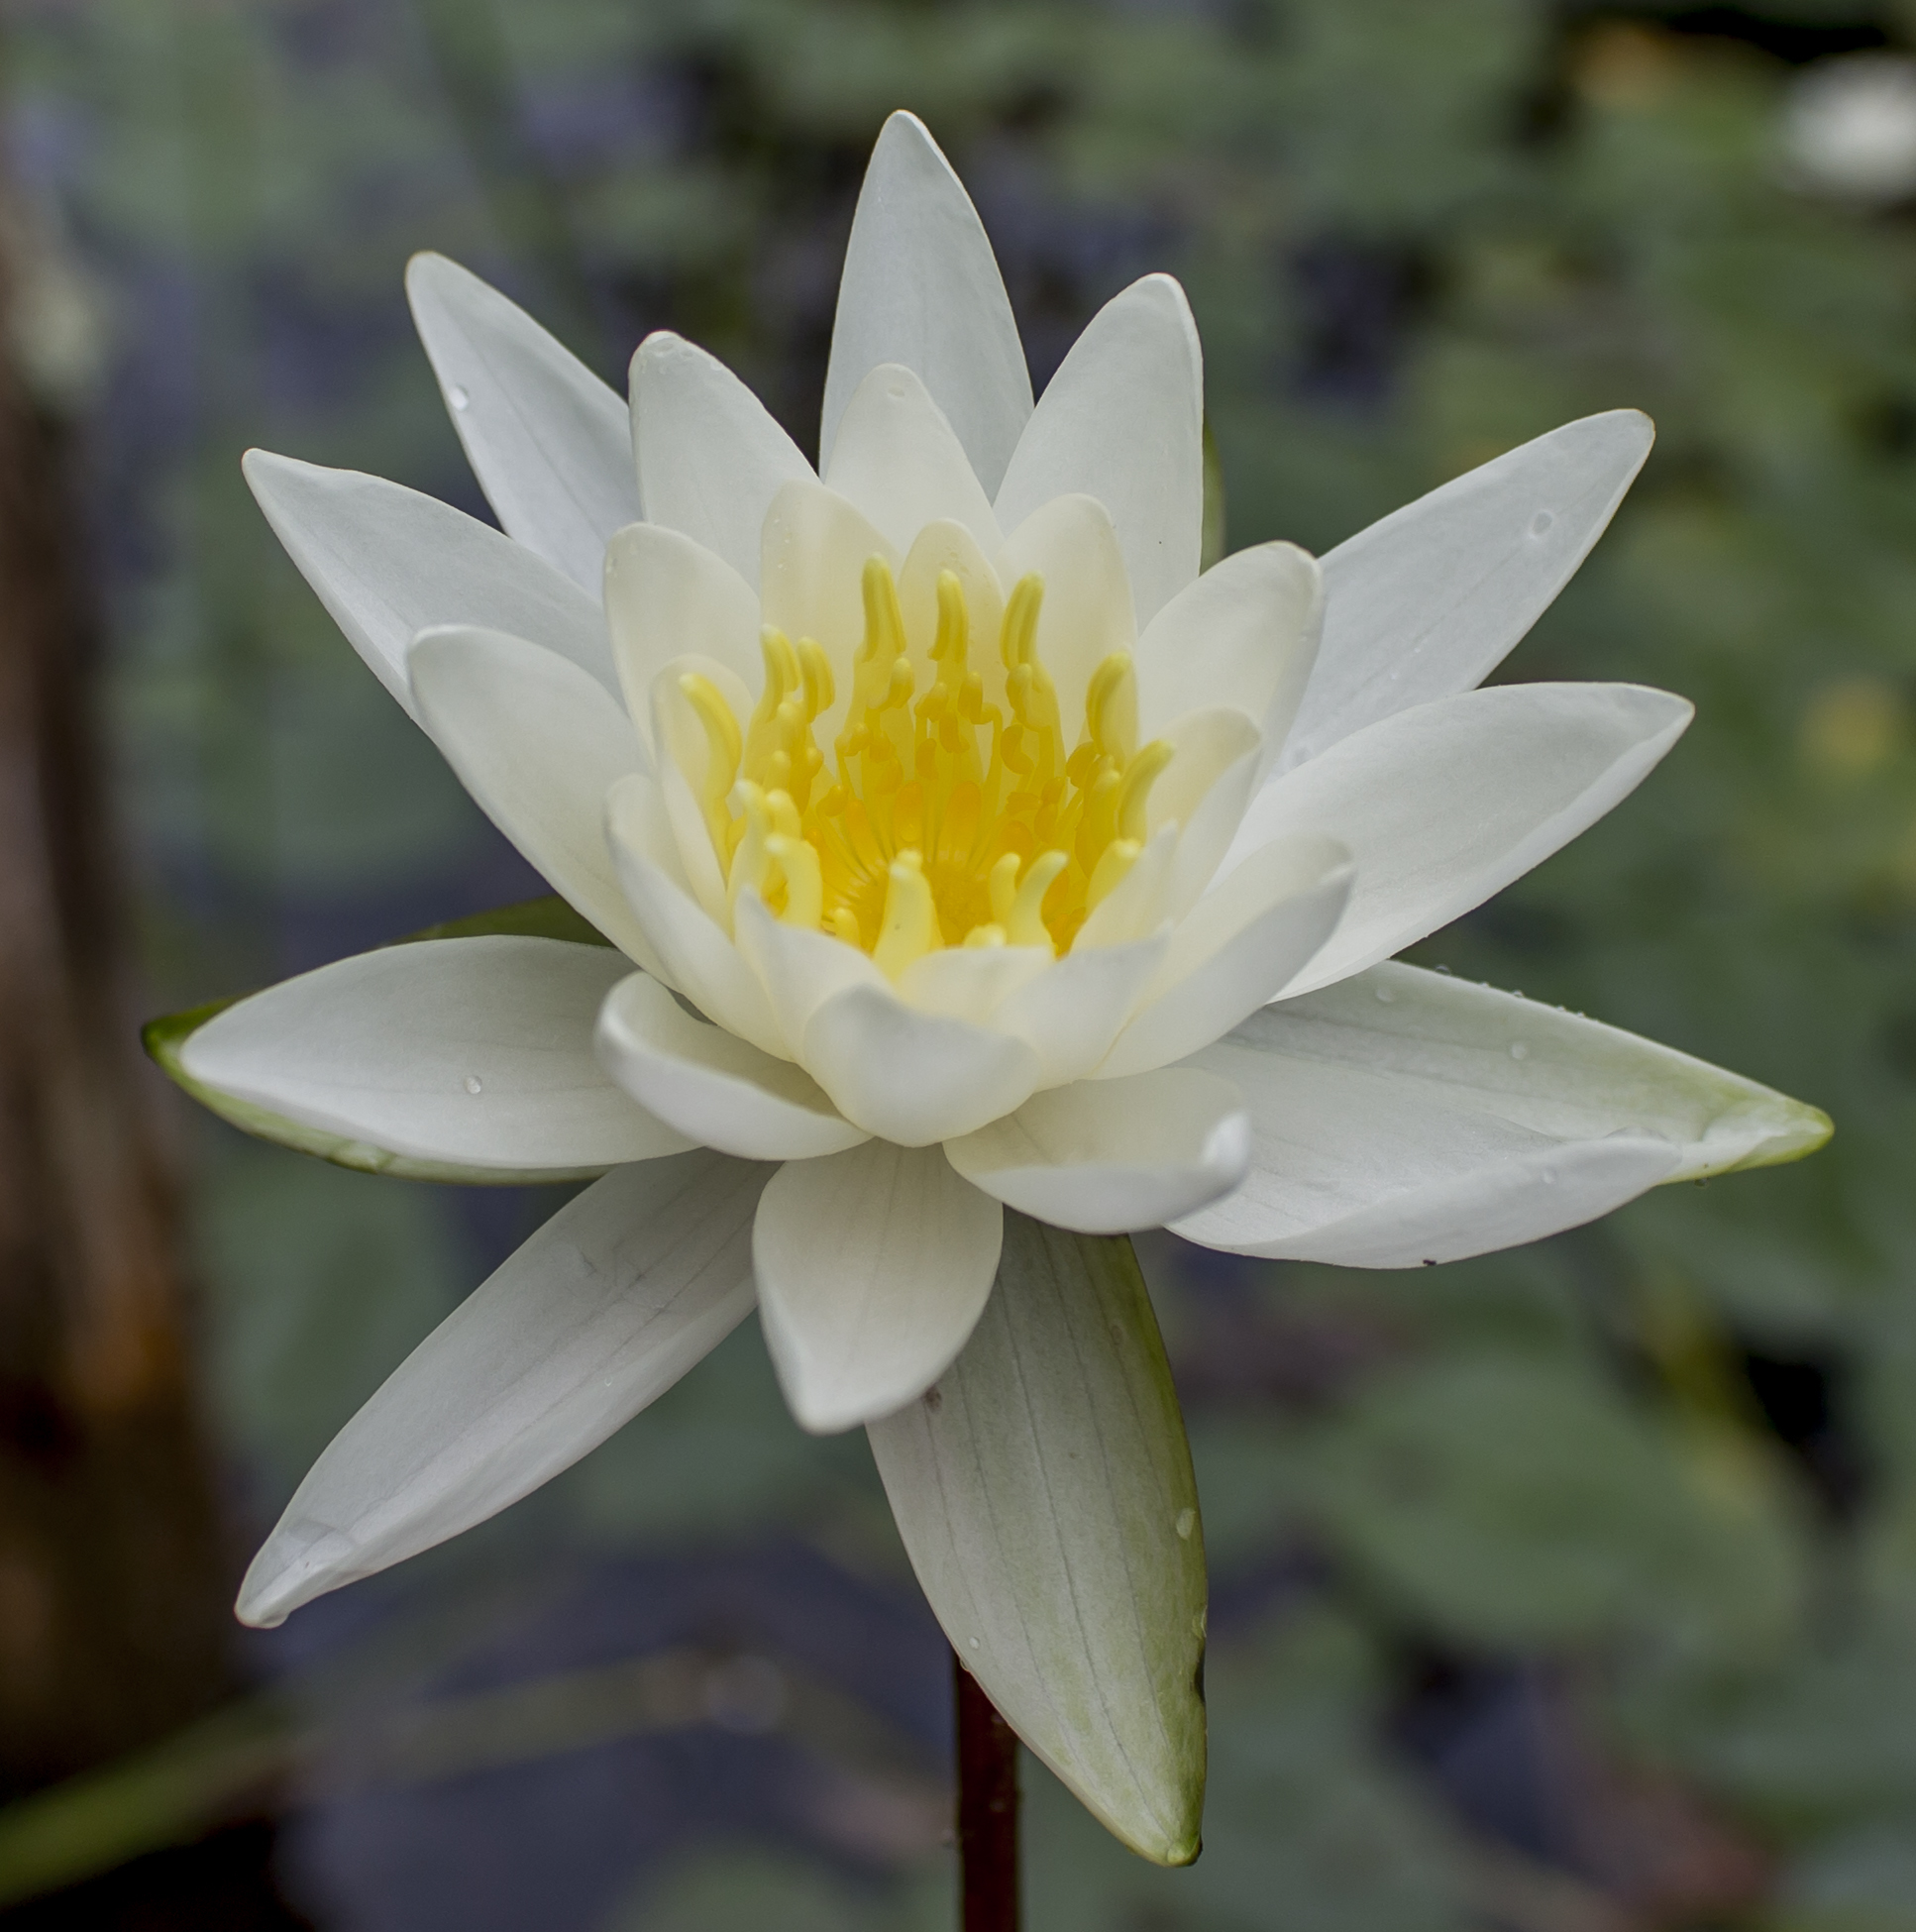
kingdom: Plantae
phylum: Tracheophyta
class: Magnoliopsida
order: Nymphaeales
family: Nymphaeaceae
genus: Nymphaea
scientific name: Nymphaea odorata
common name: Fragrant water-lily
